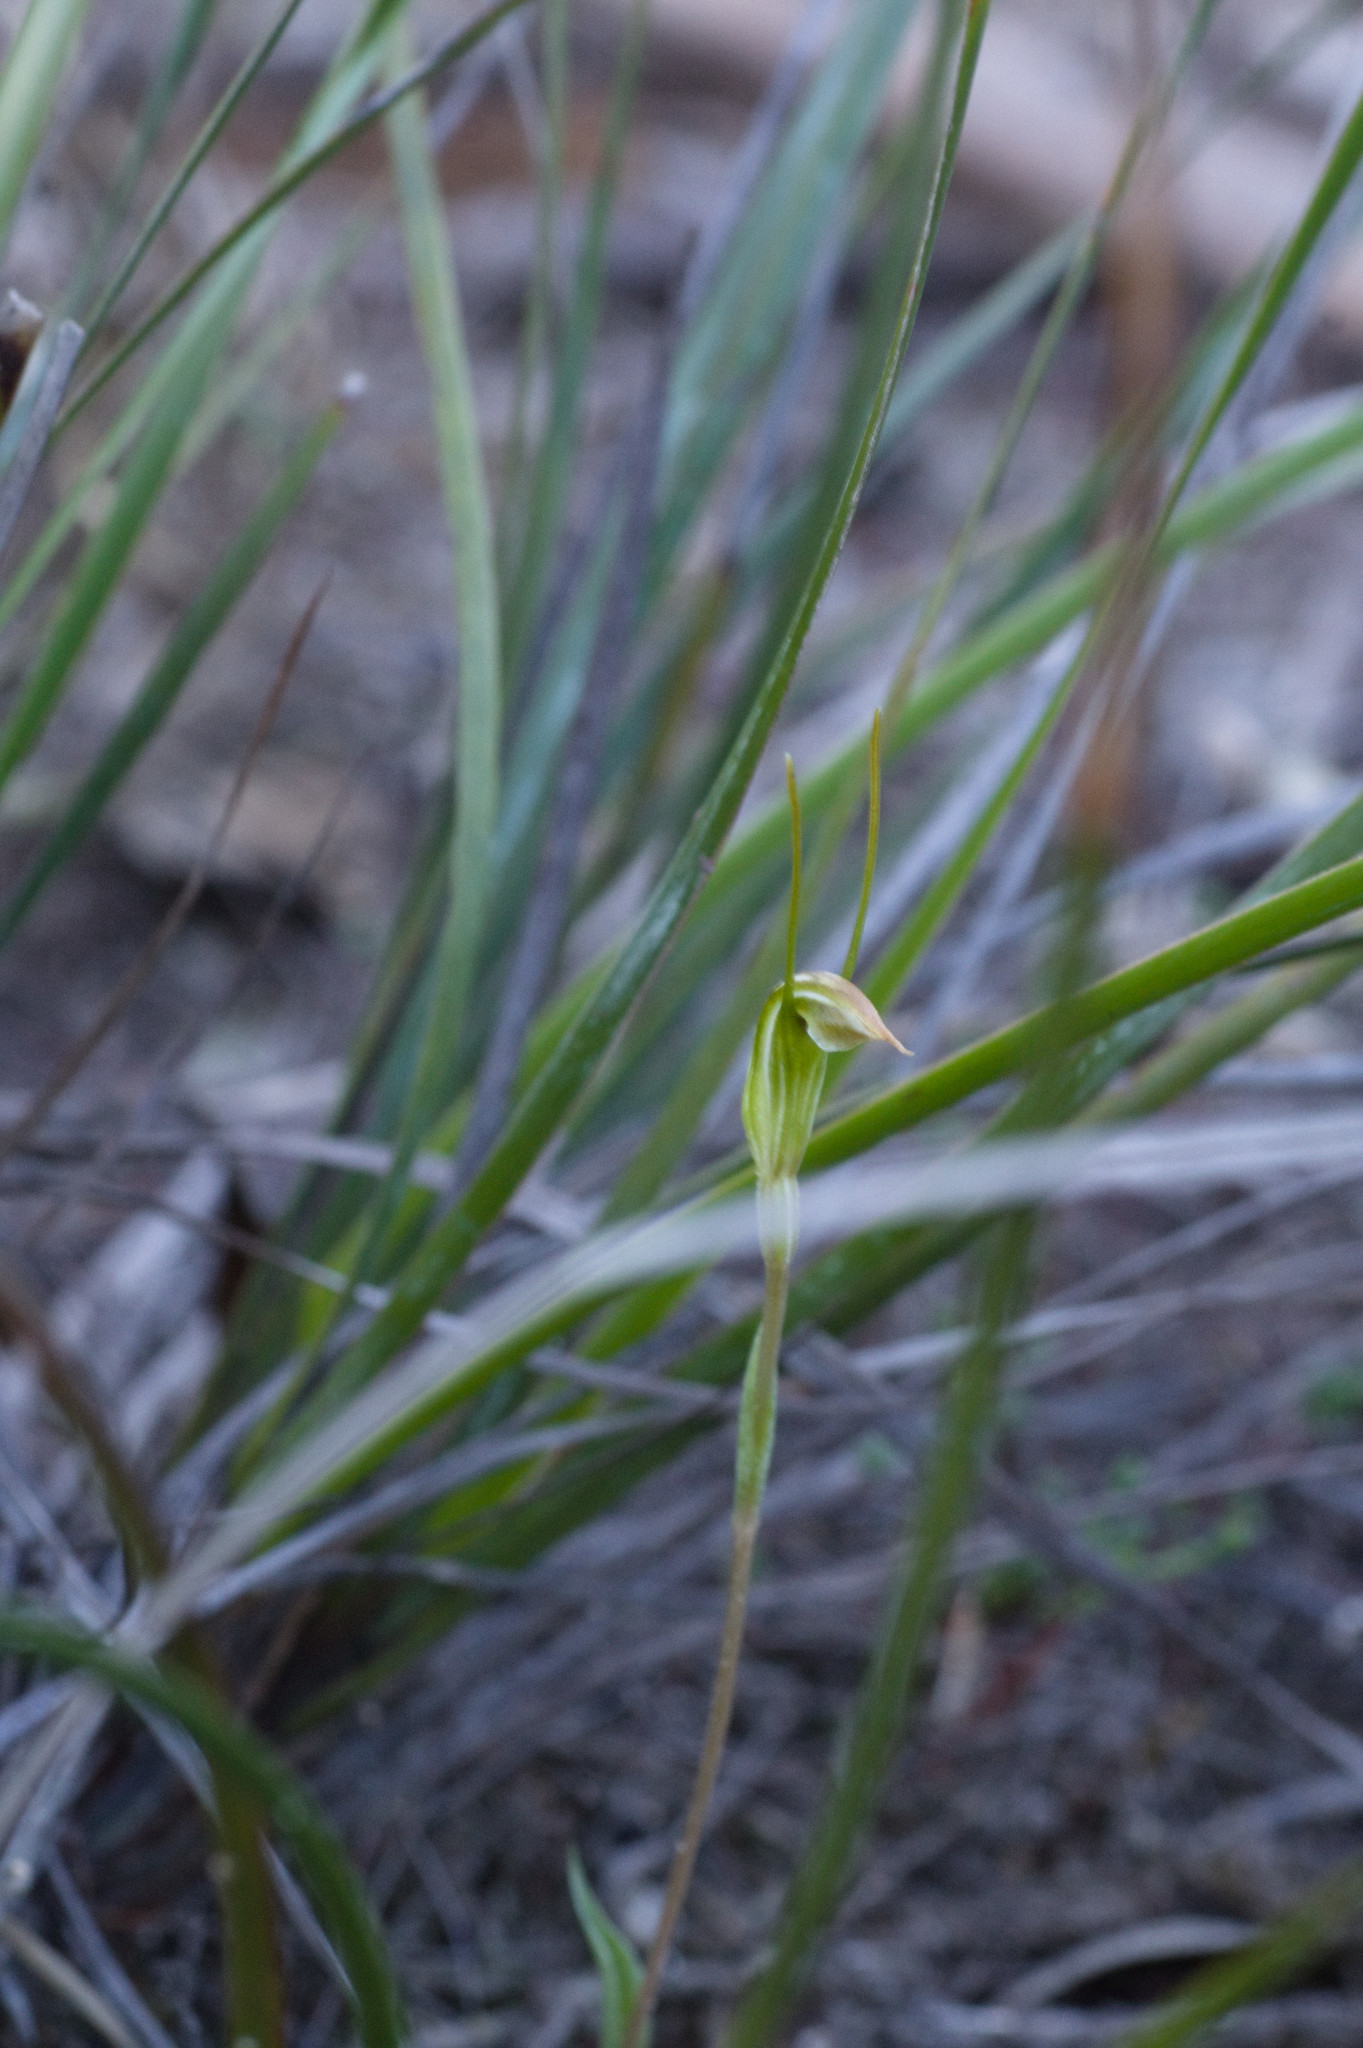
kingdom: Plantae
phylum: Tracheophyta
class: Liliopsida
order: Asparagales
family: Orchidaceae
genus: Pterostylis
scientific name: Pterostylis grossa
